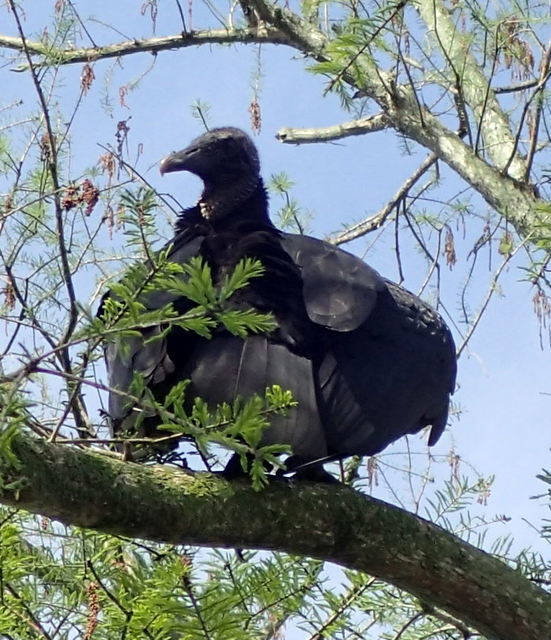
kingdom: Animalia
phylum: Chordata
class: Aves
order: Accipitriformes
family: Cathartidae
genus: Coragyps
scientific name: Coragyps atratus
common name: Black vulture
